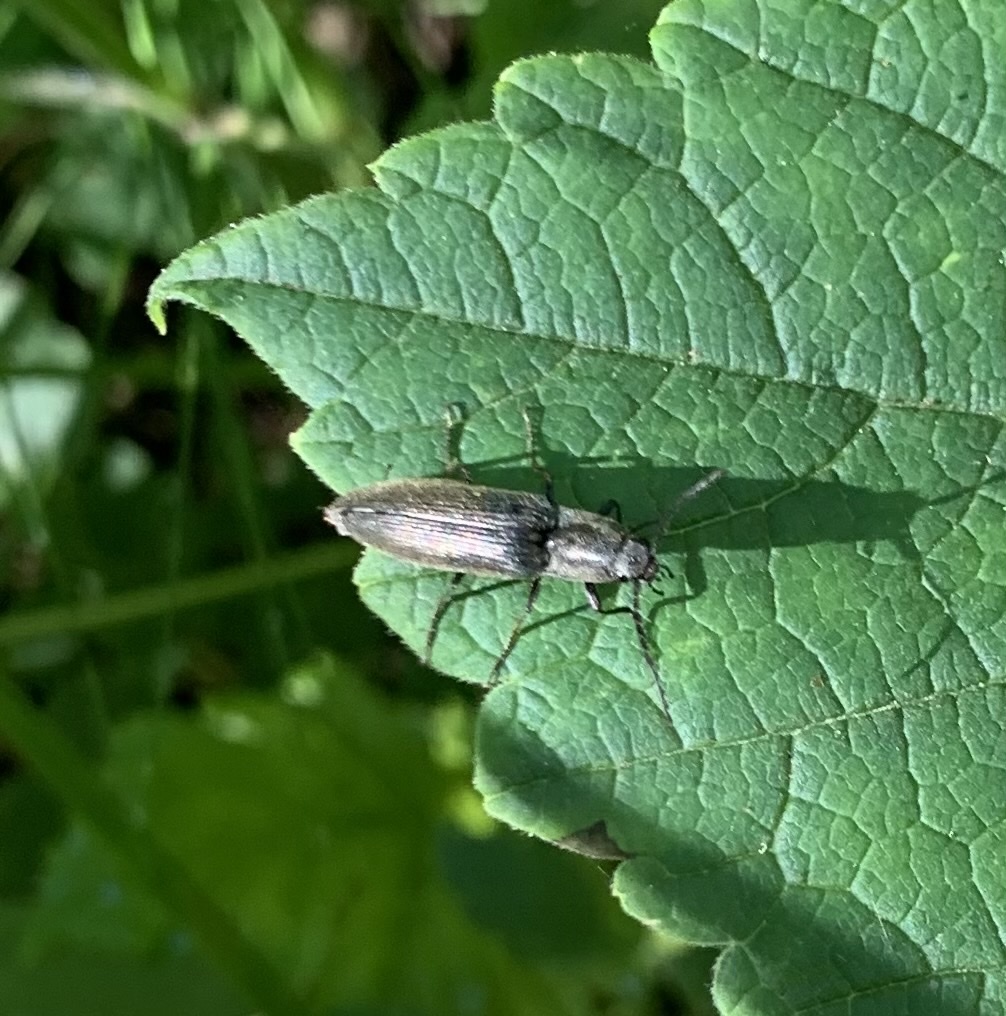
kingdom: Animalia
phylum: Arthropoda
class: Insecta
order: Coleoptera
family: Elateridae
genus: Proludius
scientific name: Proludius
